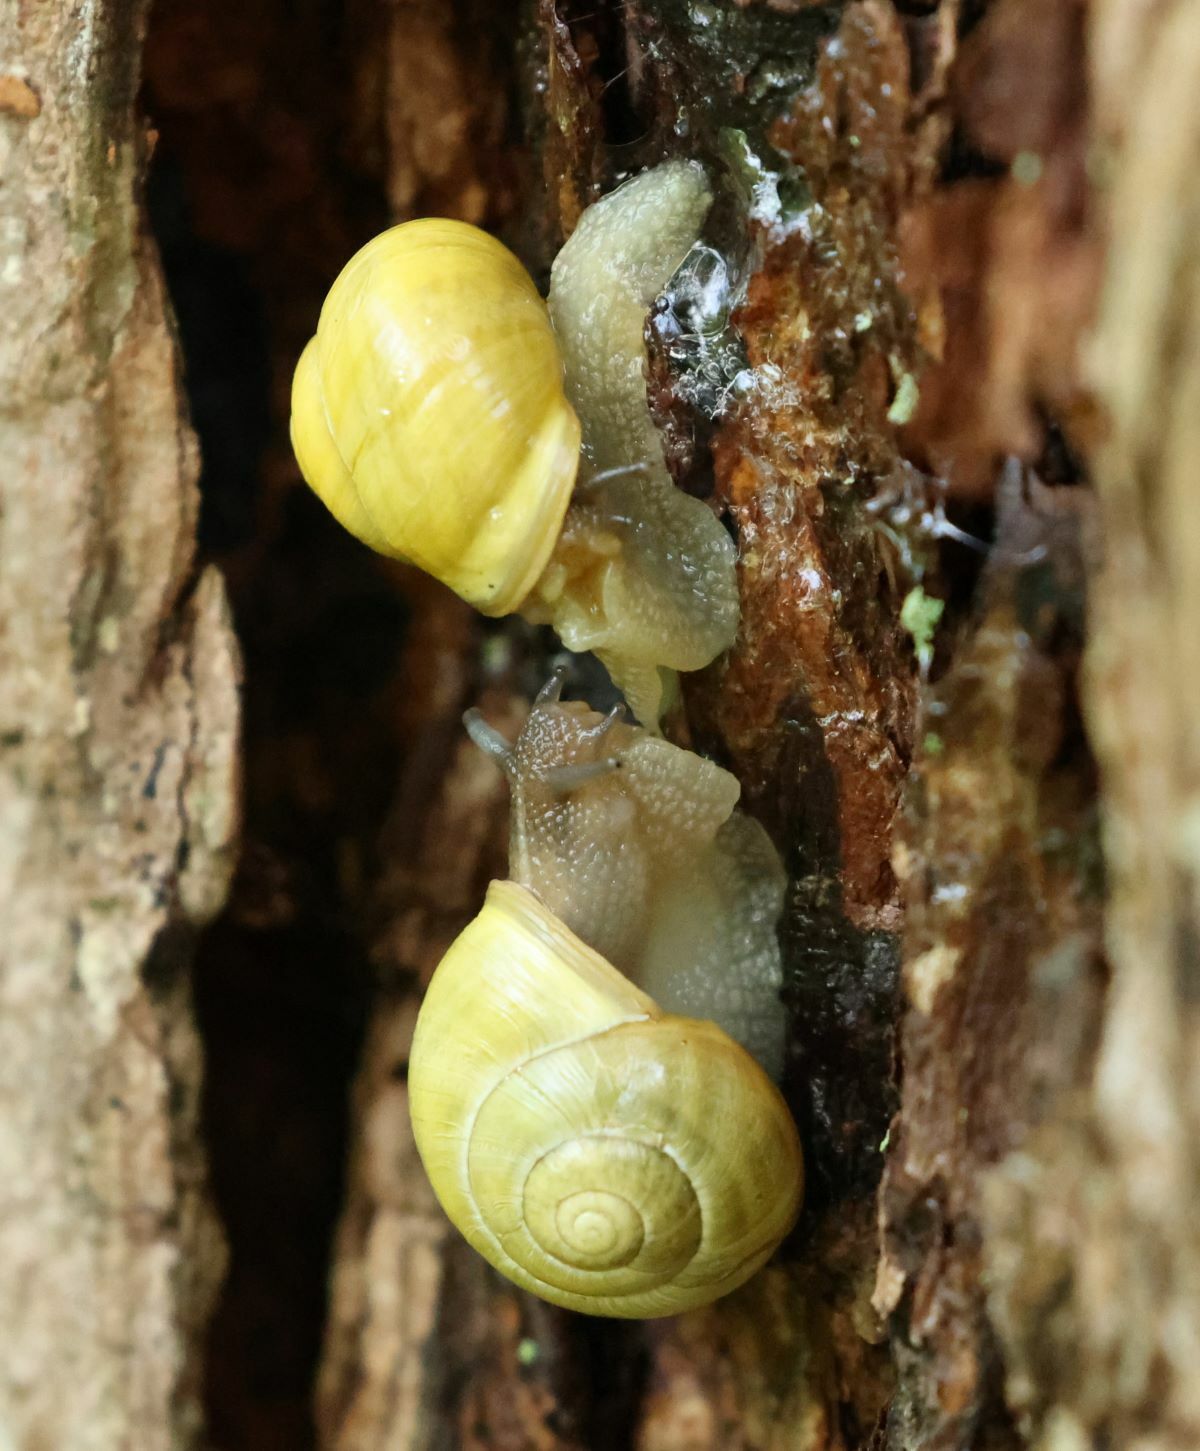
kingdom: Animalia
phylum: Mollusca
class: Gastropoda
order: Stylommatophora
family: Helicidae
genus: Cepaea
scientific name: Cepaea hortensis
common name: White-lip gardensnail
